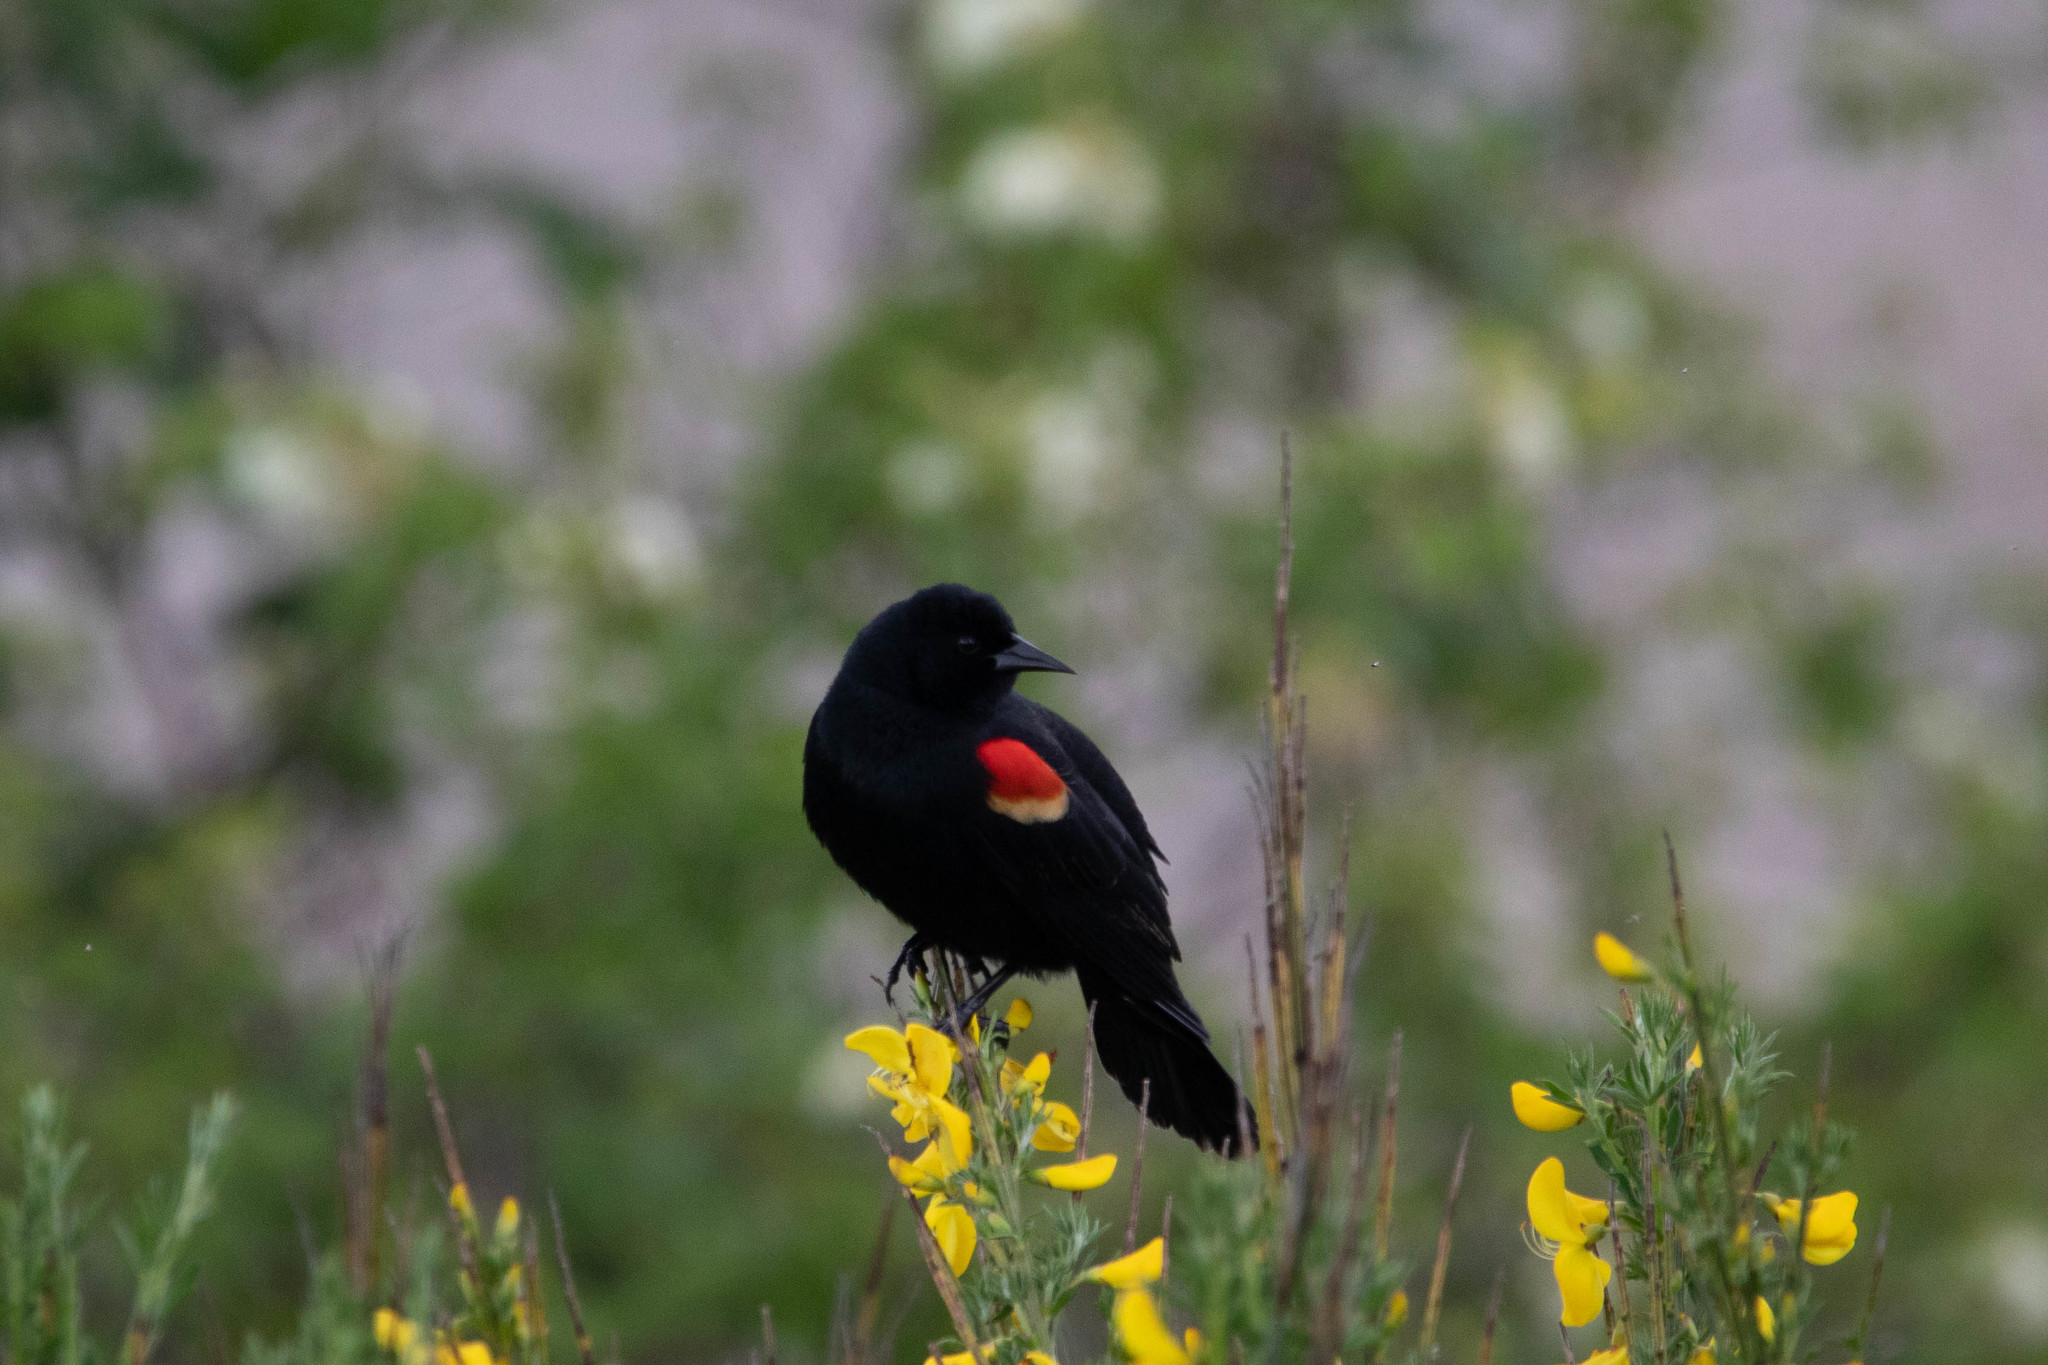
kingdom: Animalia
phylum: Chordata
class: Aves
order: Passeriformes
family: Icteridae
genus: Agelaius
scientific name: Agelaius phoeniceus
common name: Red-winged blackbird
